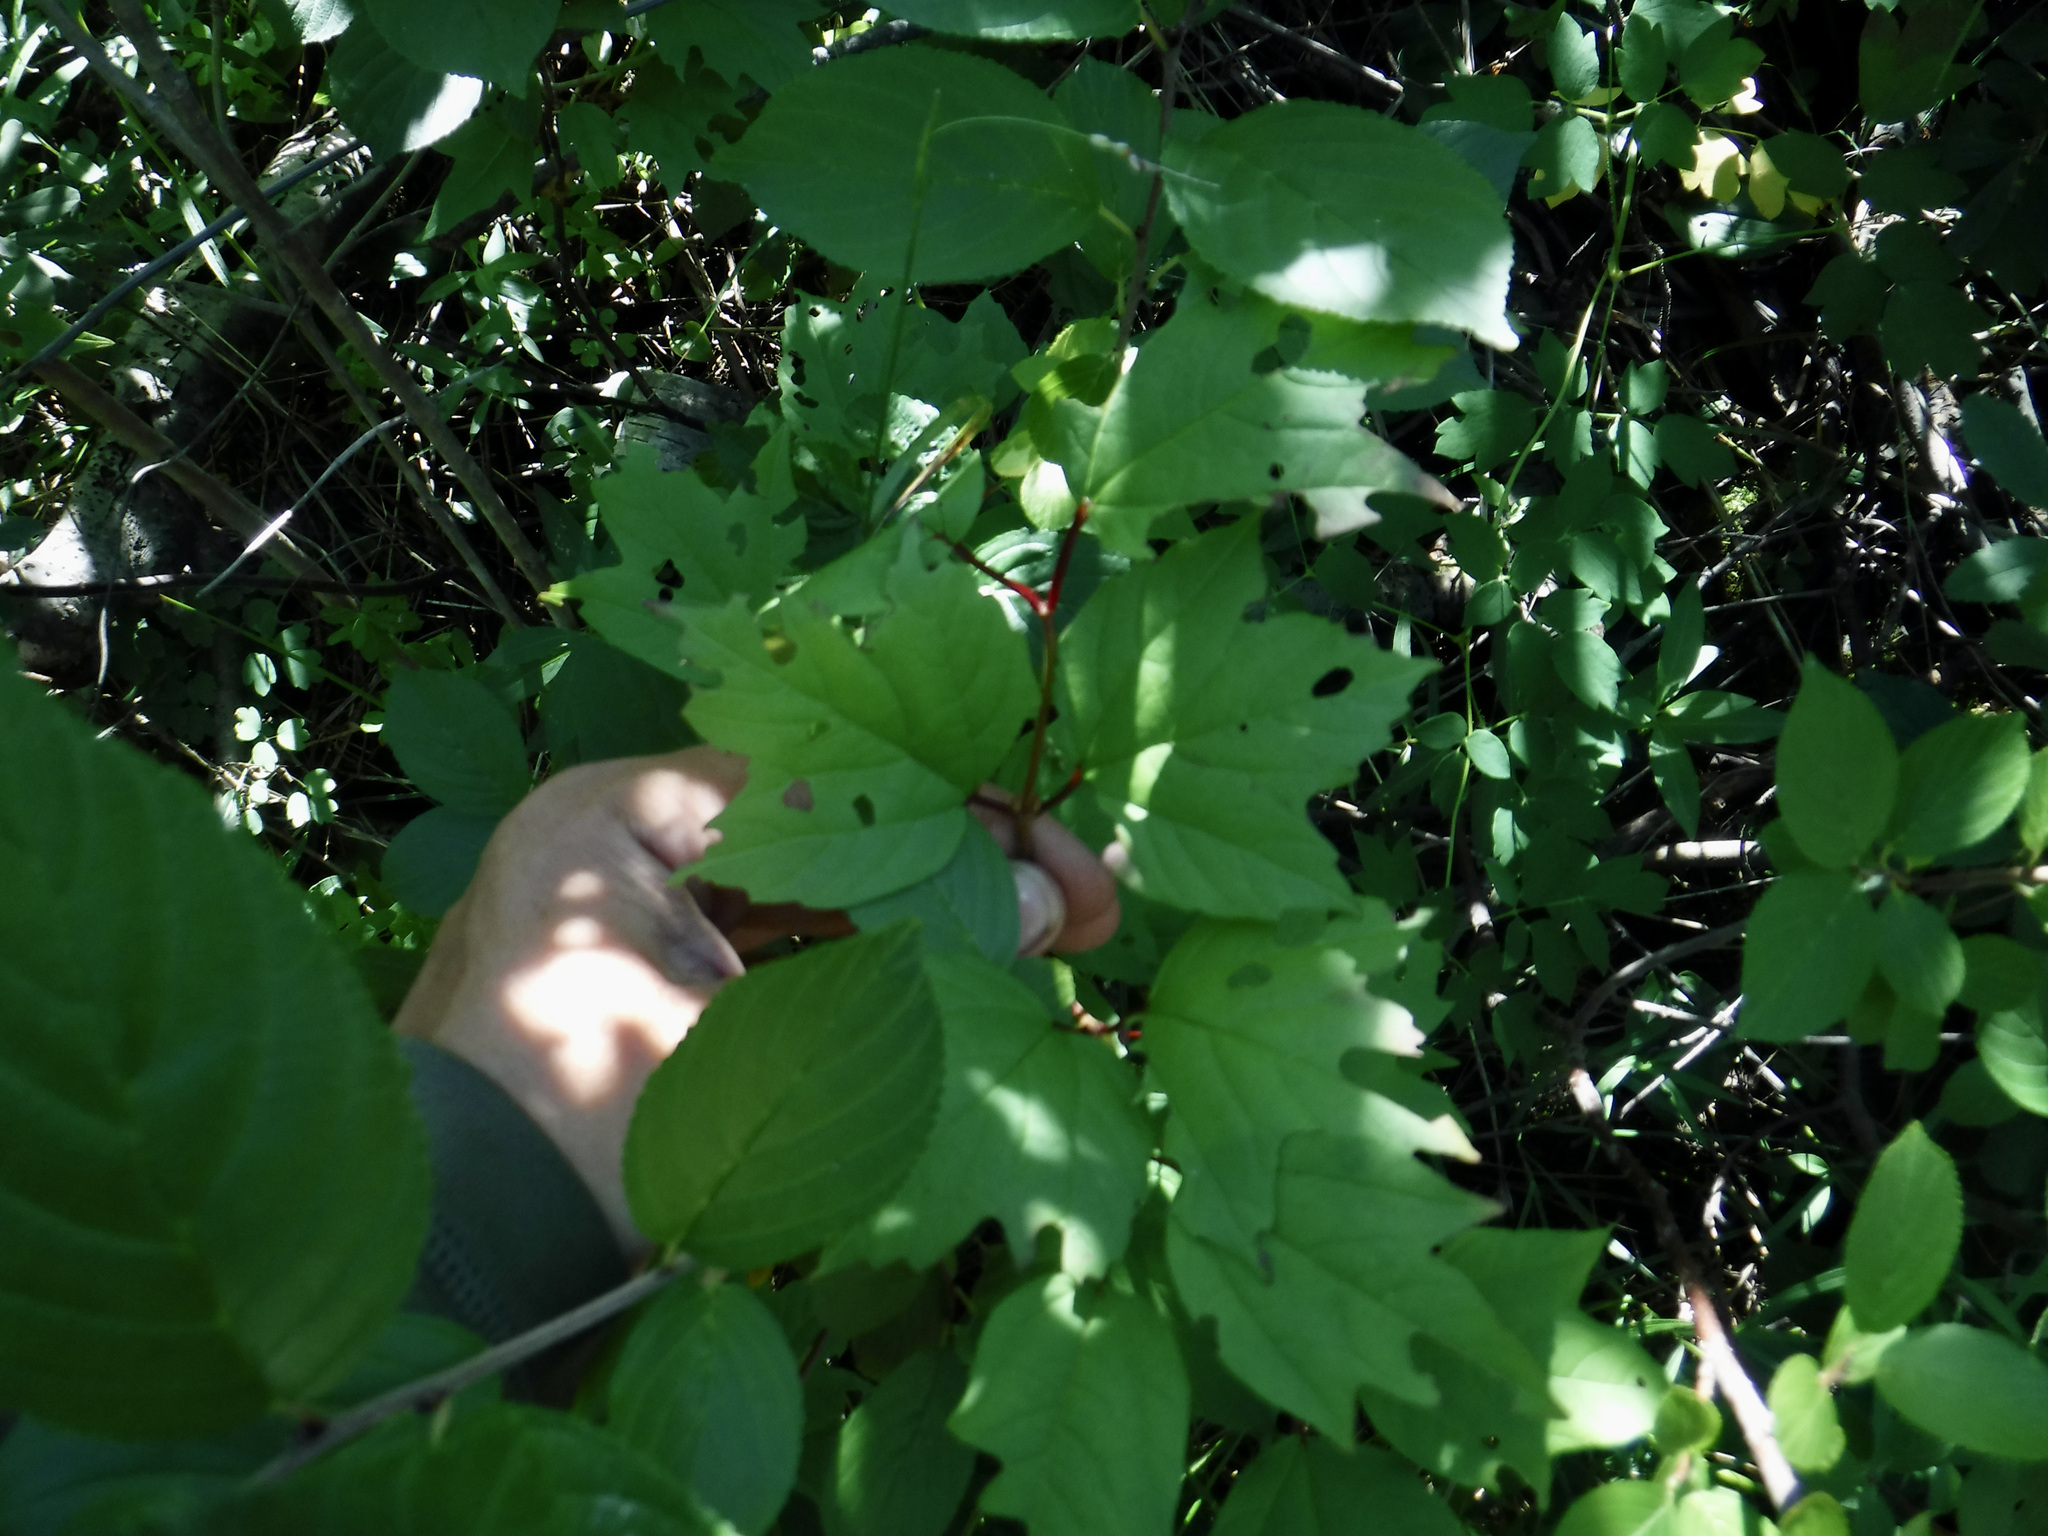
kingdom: Plantae
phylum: Tracheophyta
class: Magnoliopsida
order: Dipsacales
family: Viburnaceae
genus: Viburnum
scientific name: Viburnum opulus
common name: Guelder-rose
